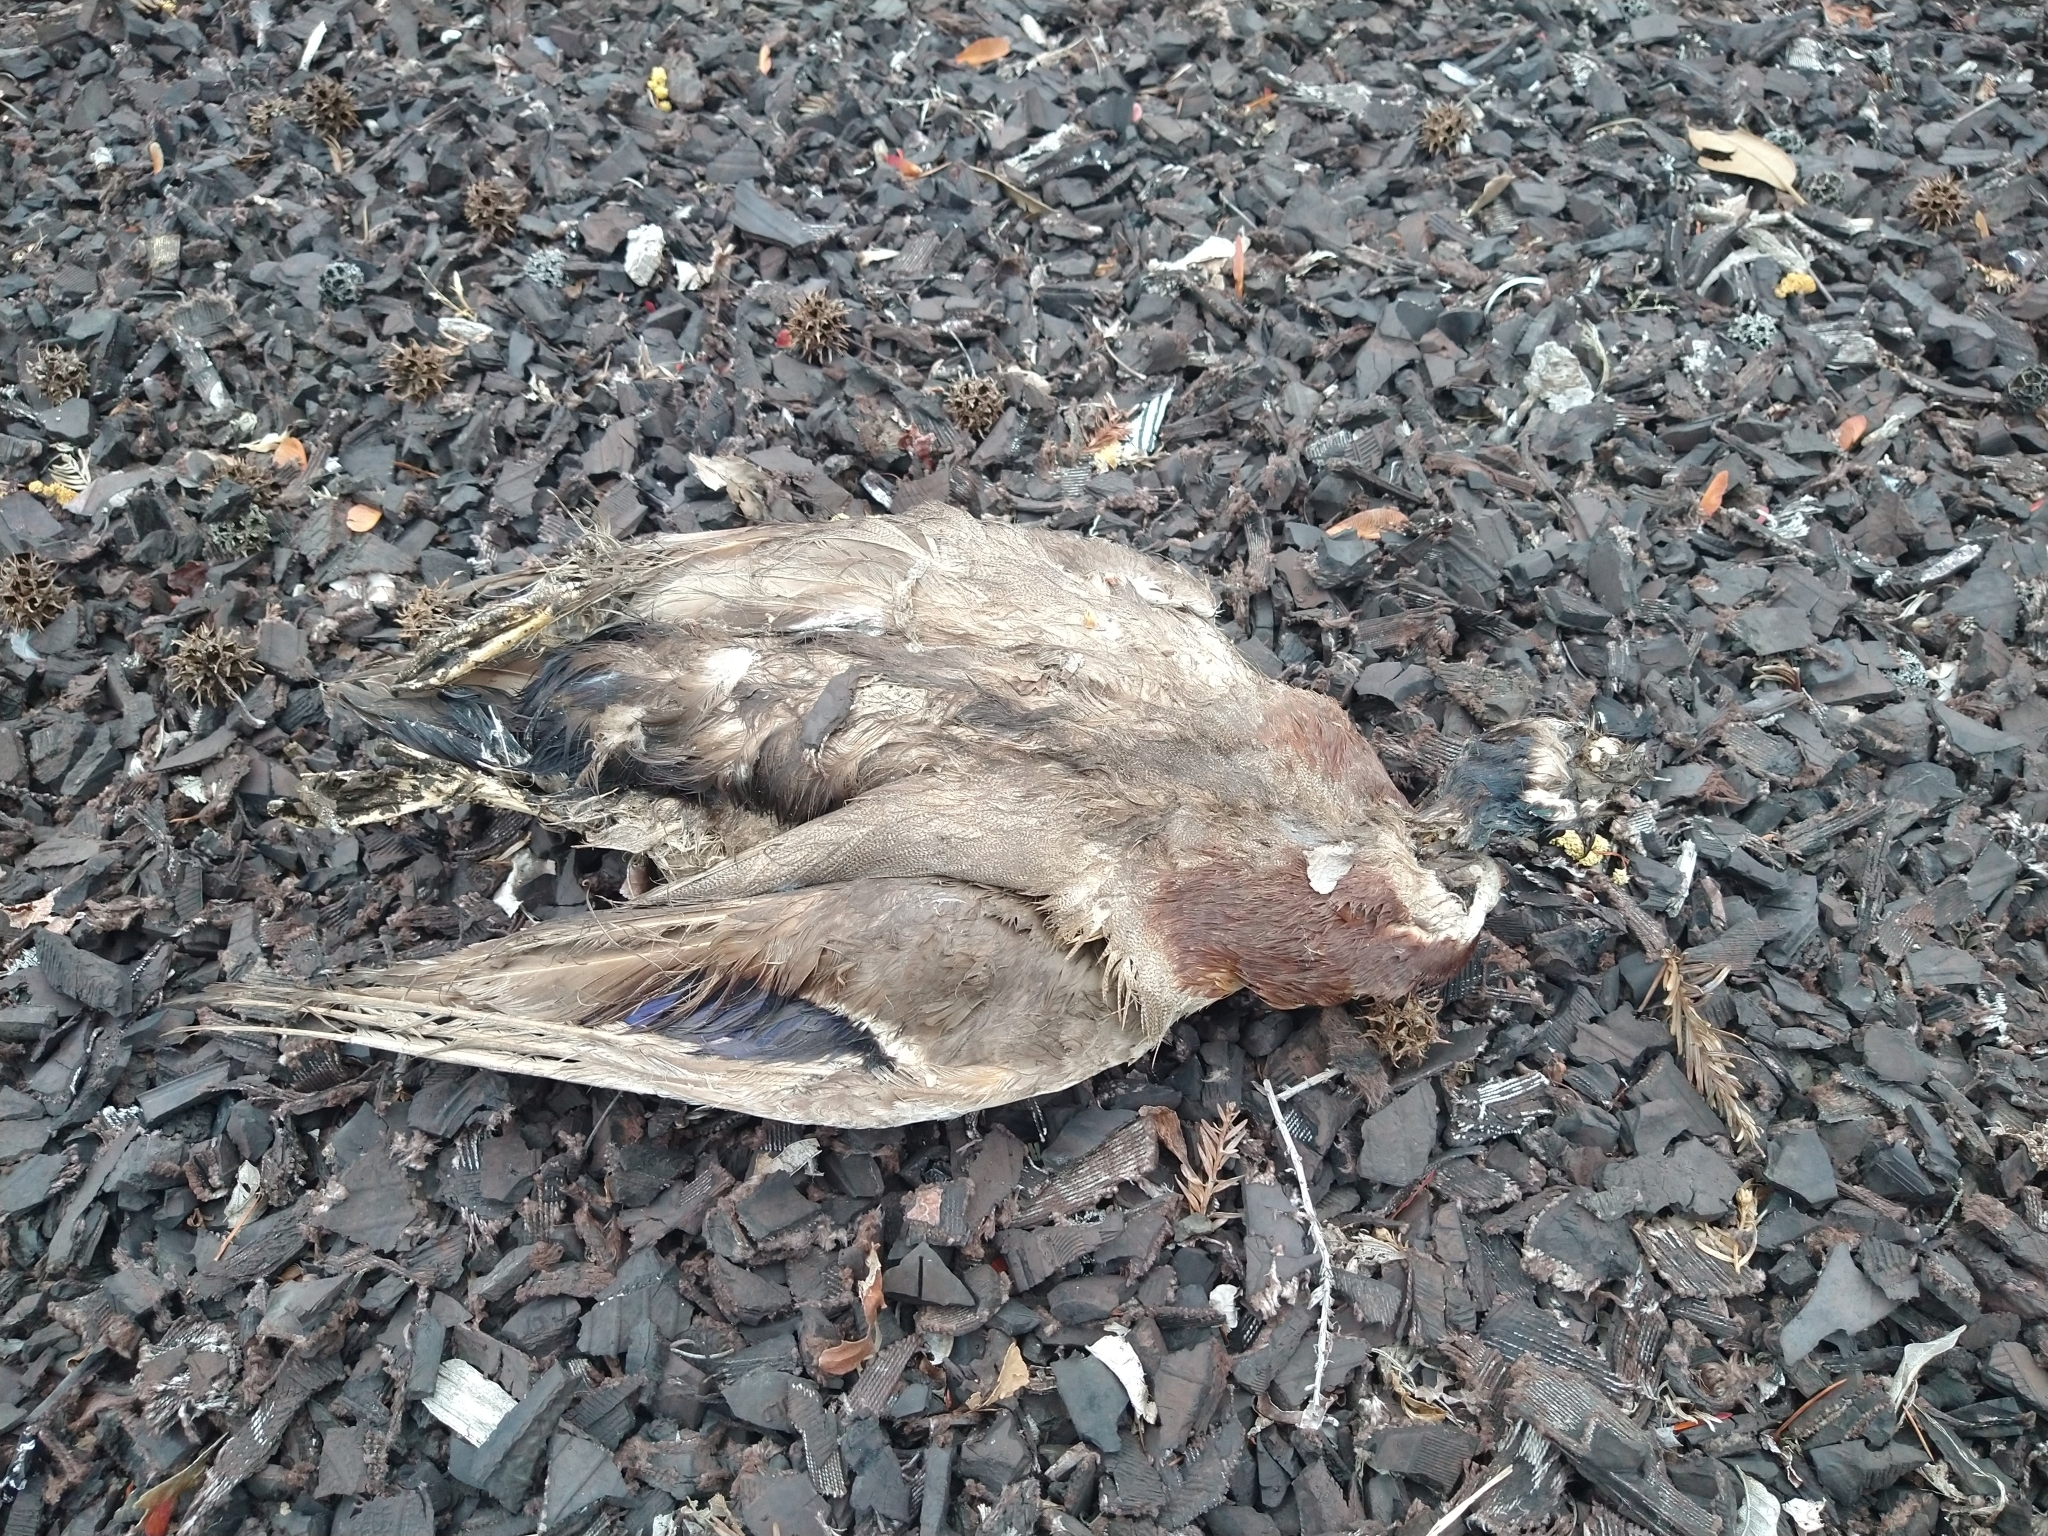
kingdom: Animalia
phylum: Chordata
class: Aves
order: Anseriformes
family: Anatidae
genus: Anas
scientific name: Anas platyrhynchos
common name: Mallard
